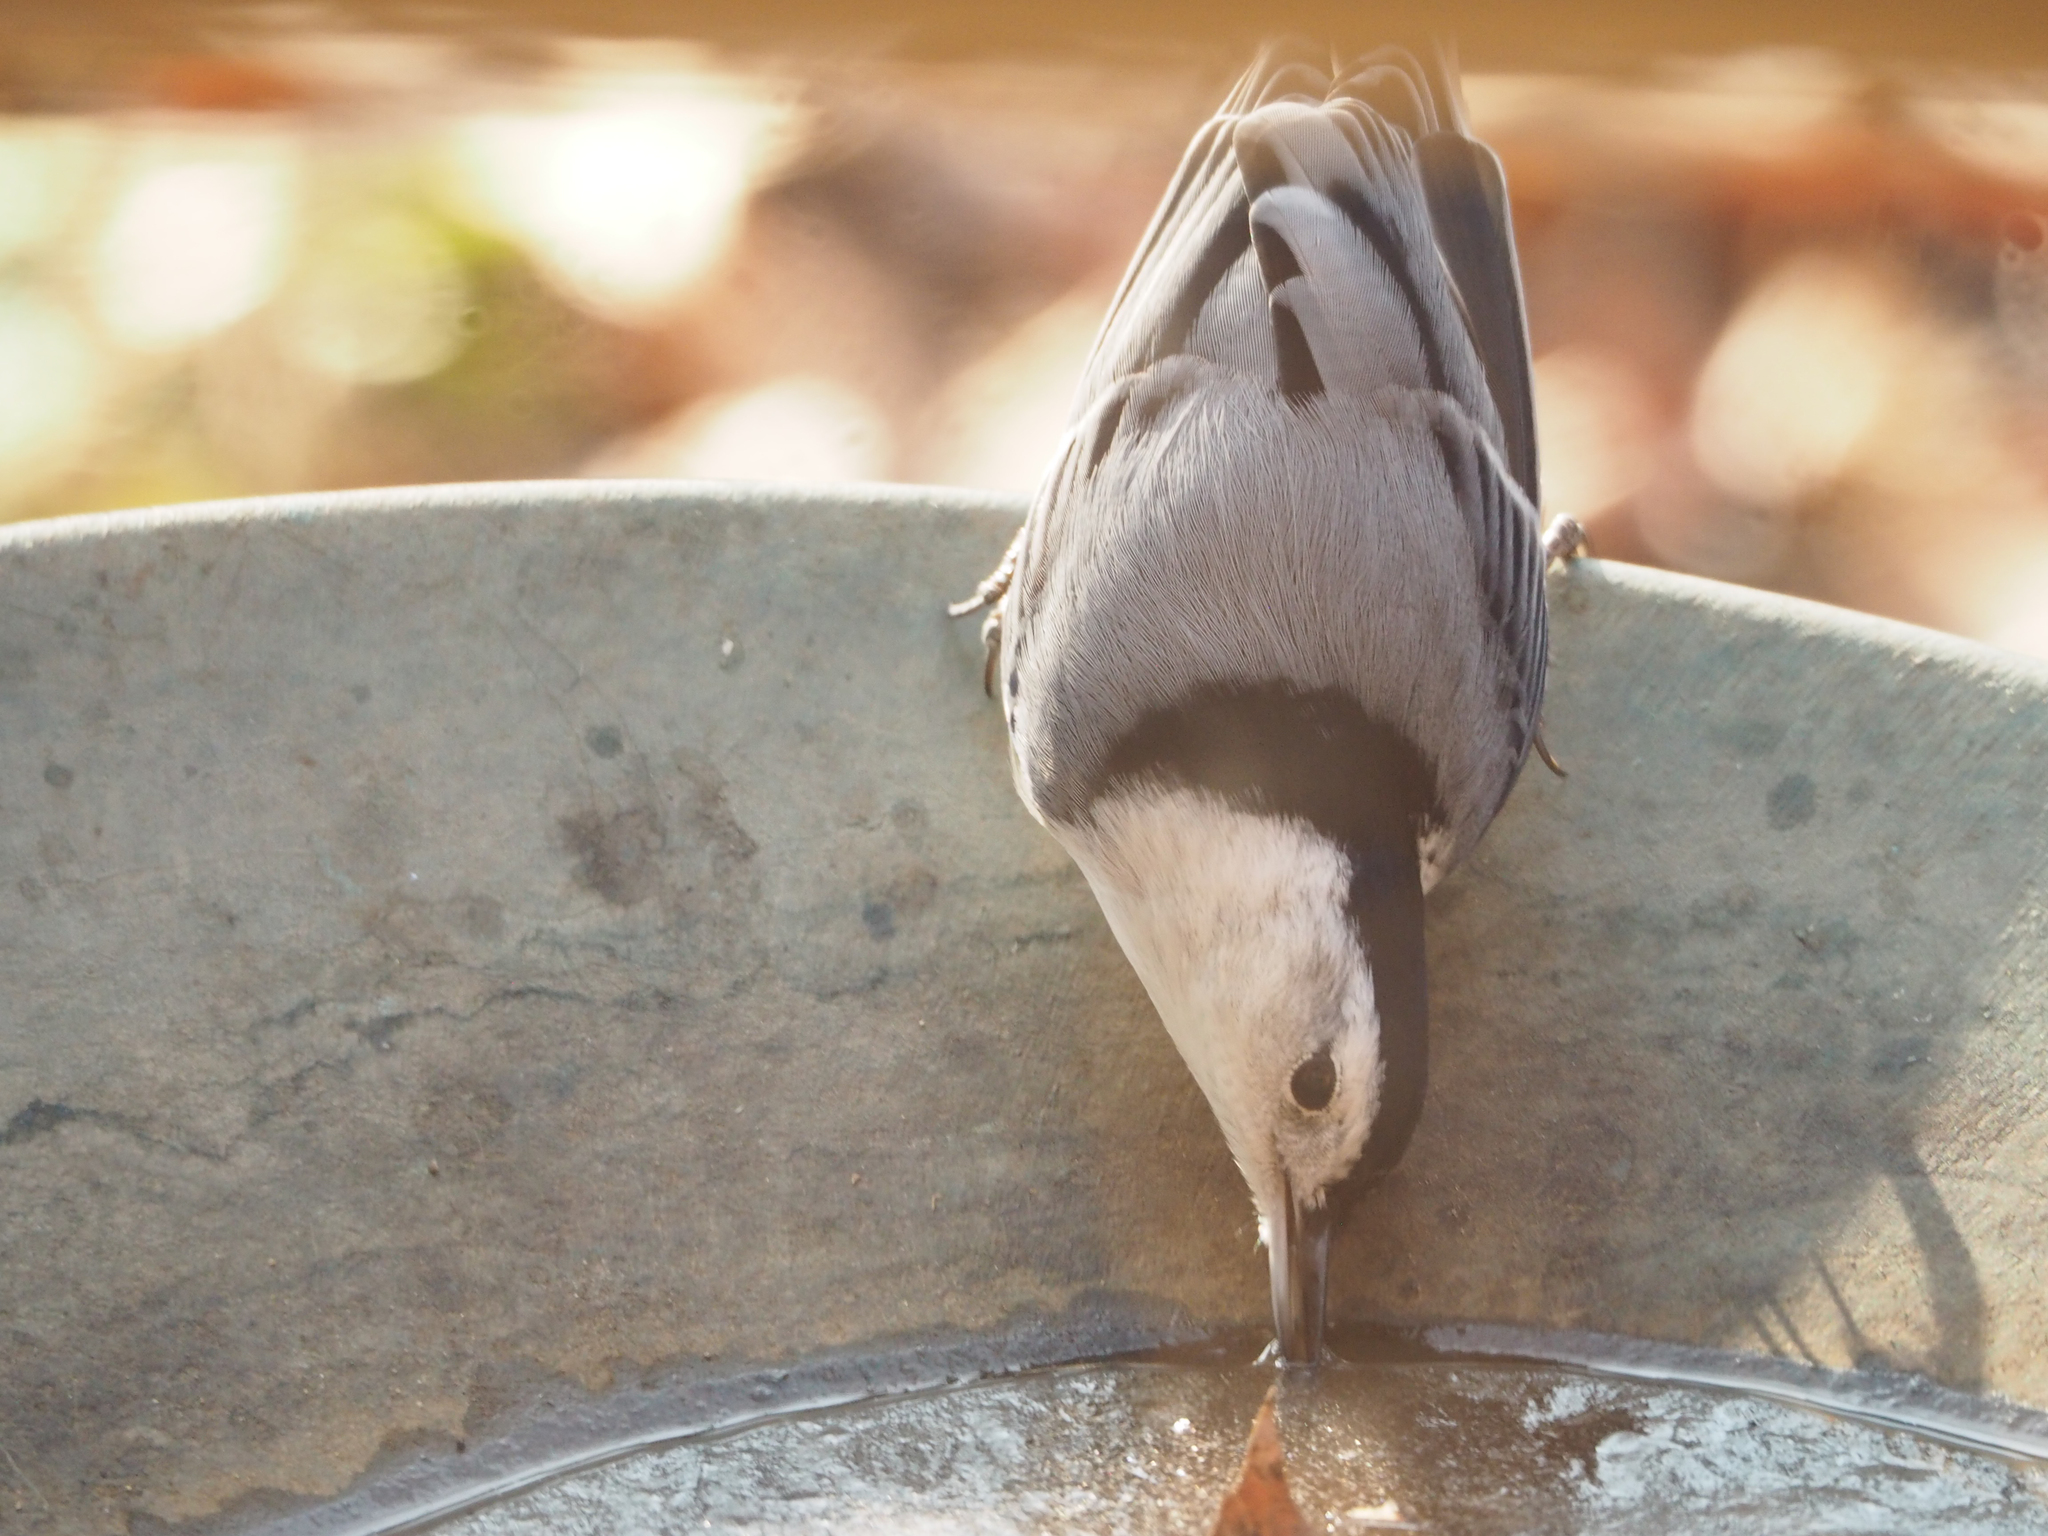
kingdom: Animalia
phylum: Chordata
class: Aves
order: Passeriformes
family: Sittidae
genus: Sitta
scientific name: Sitta carolinensis
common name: White-breasted nuthatch
